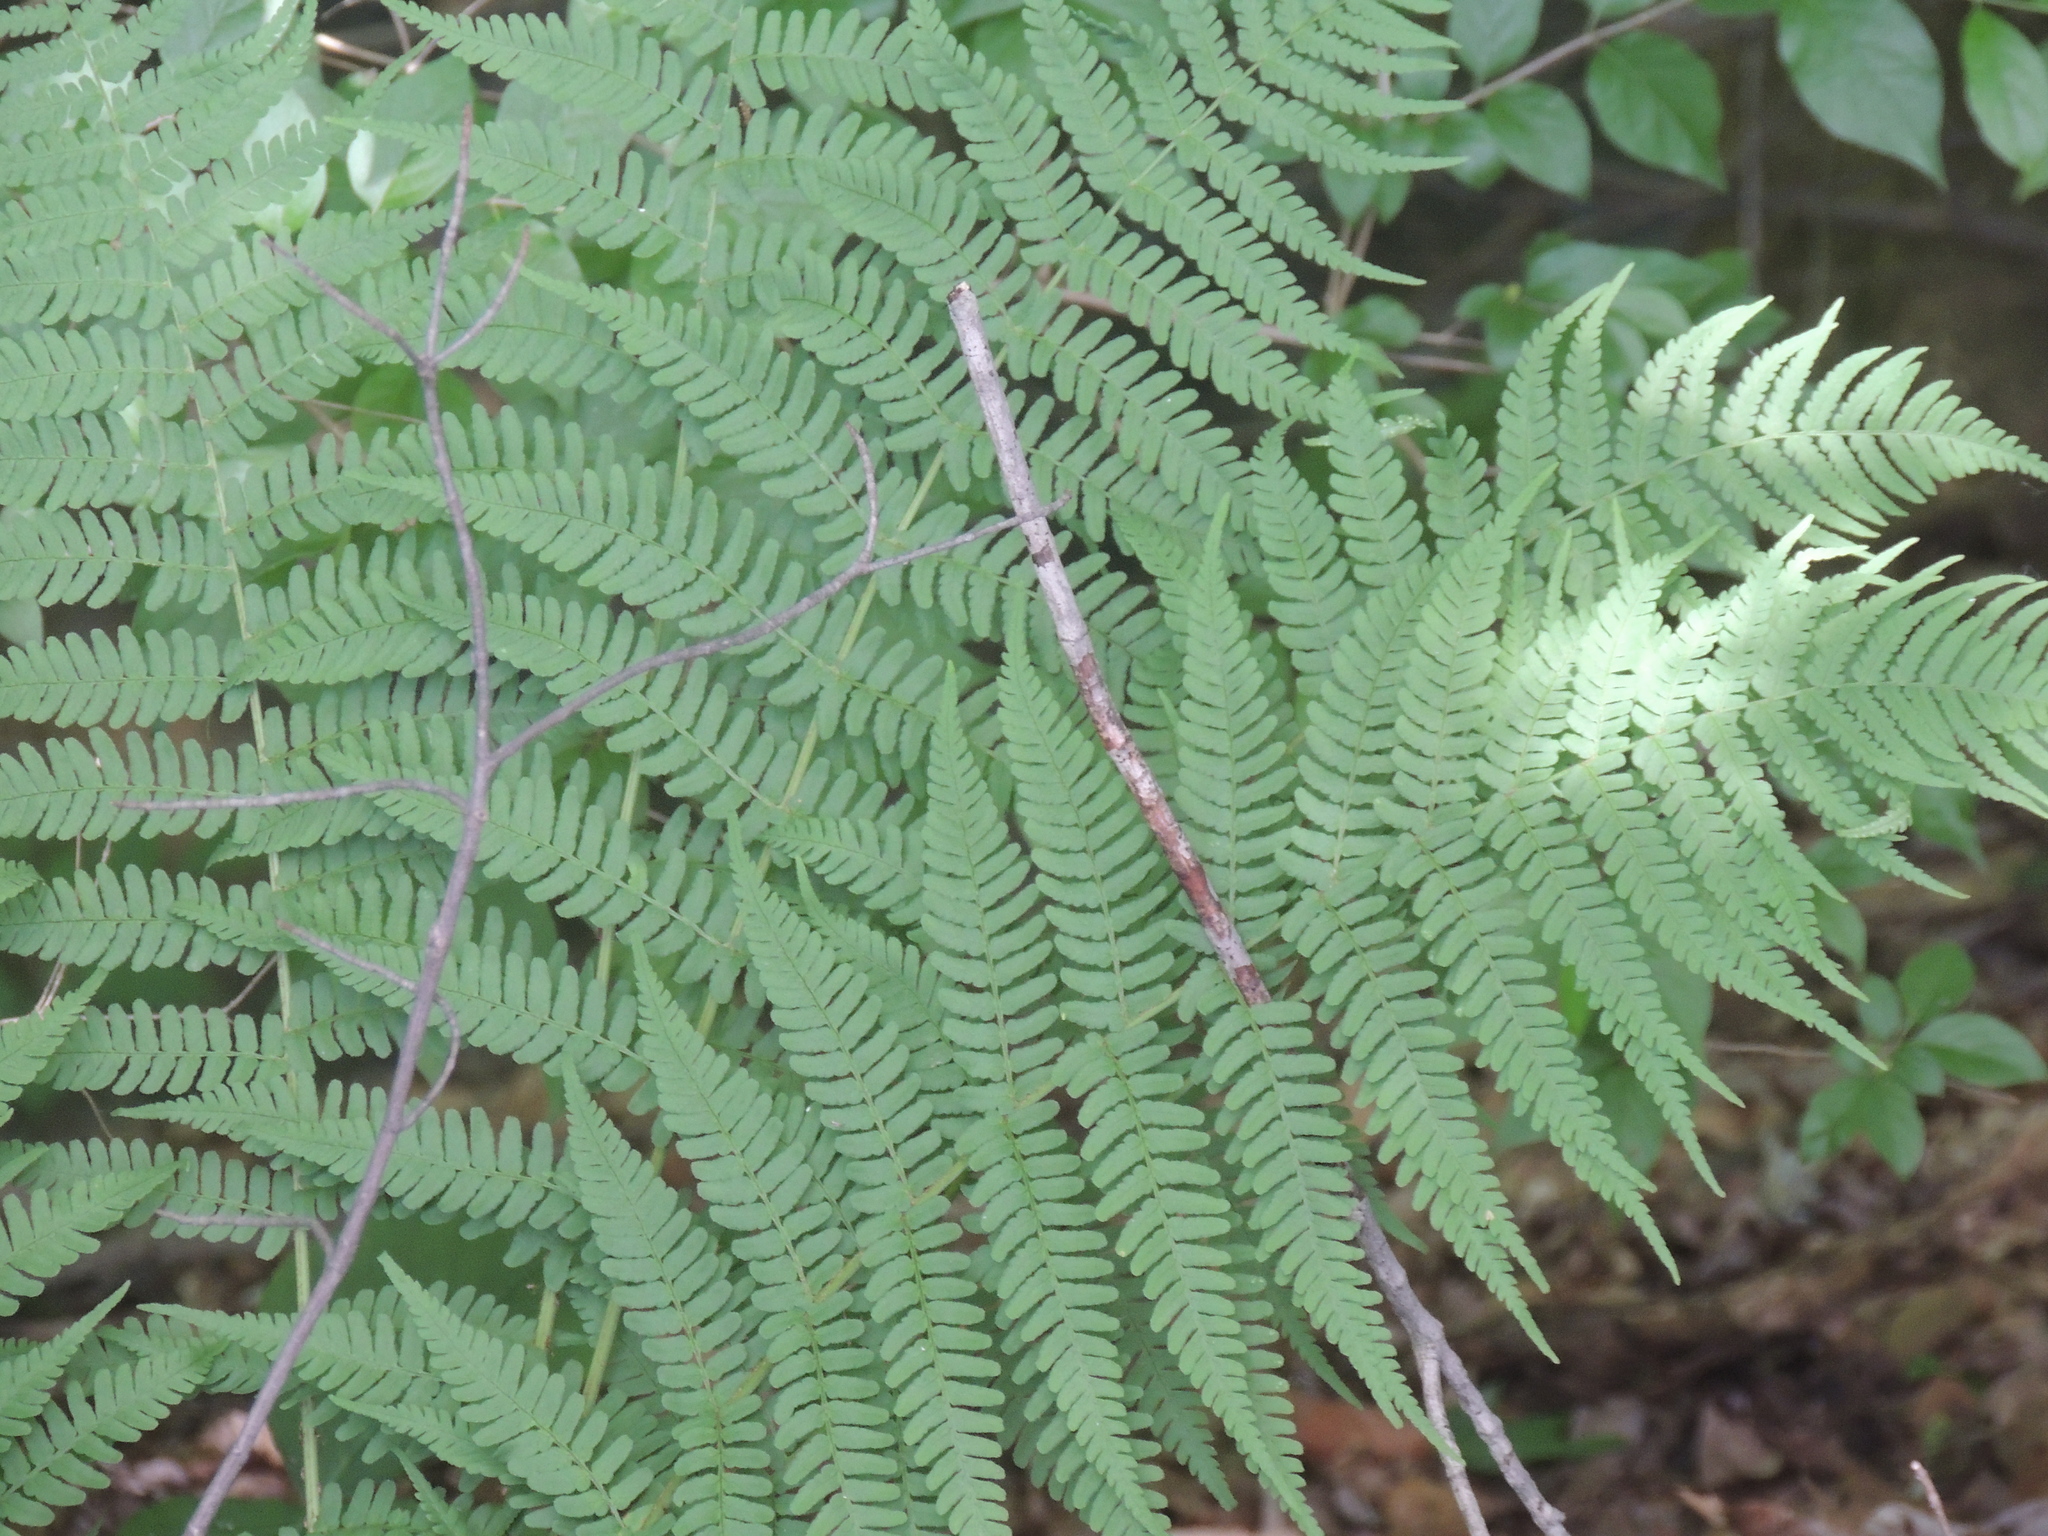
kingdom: Plantae
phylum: Tracheophyta
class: Polypodiopsida
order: Polypodiales
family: Dryopteridaceae
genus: Dryopteris
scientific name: Dryopteris marginalis
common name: Marginal wood fern
